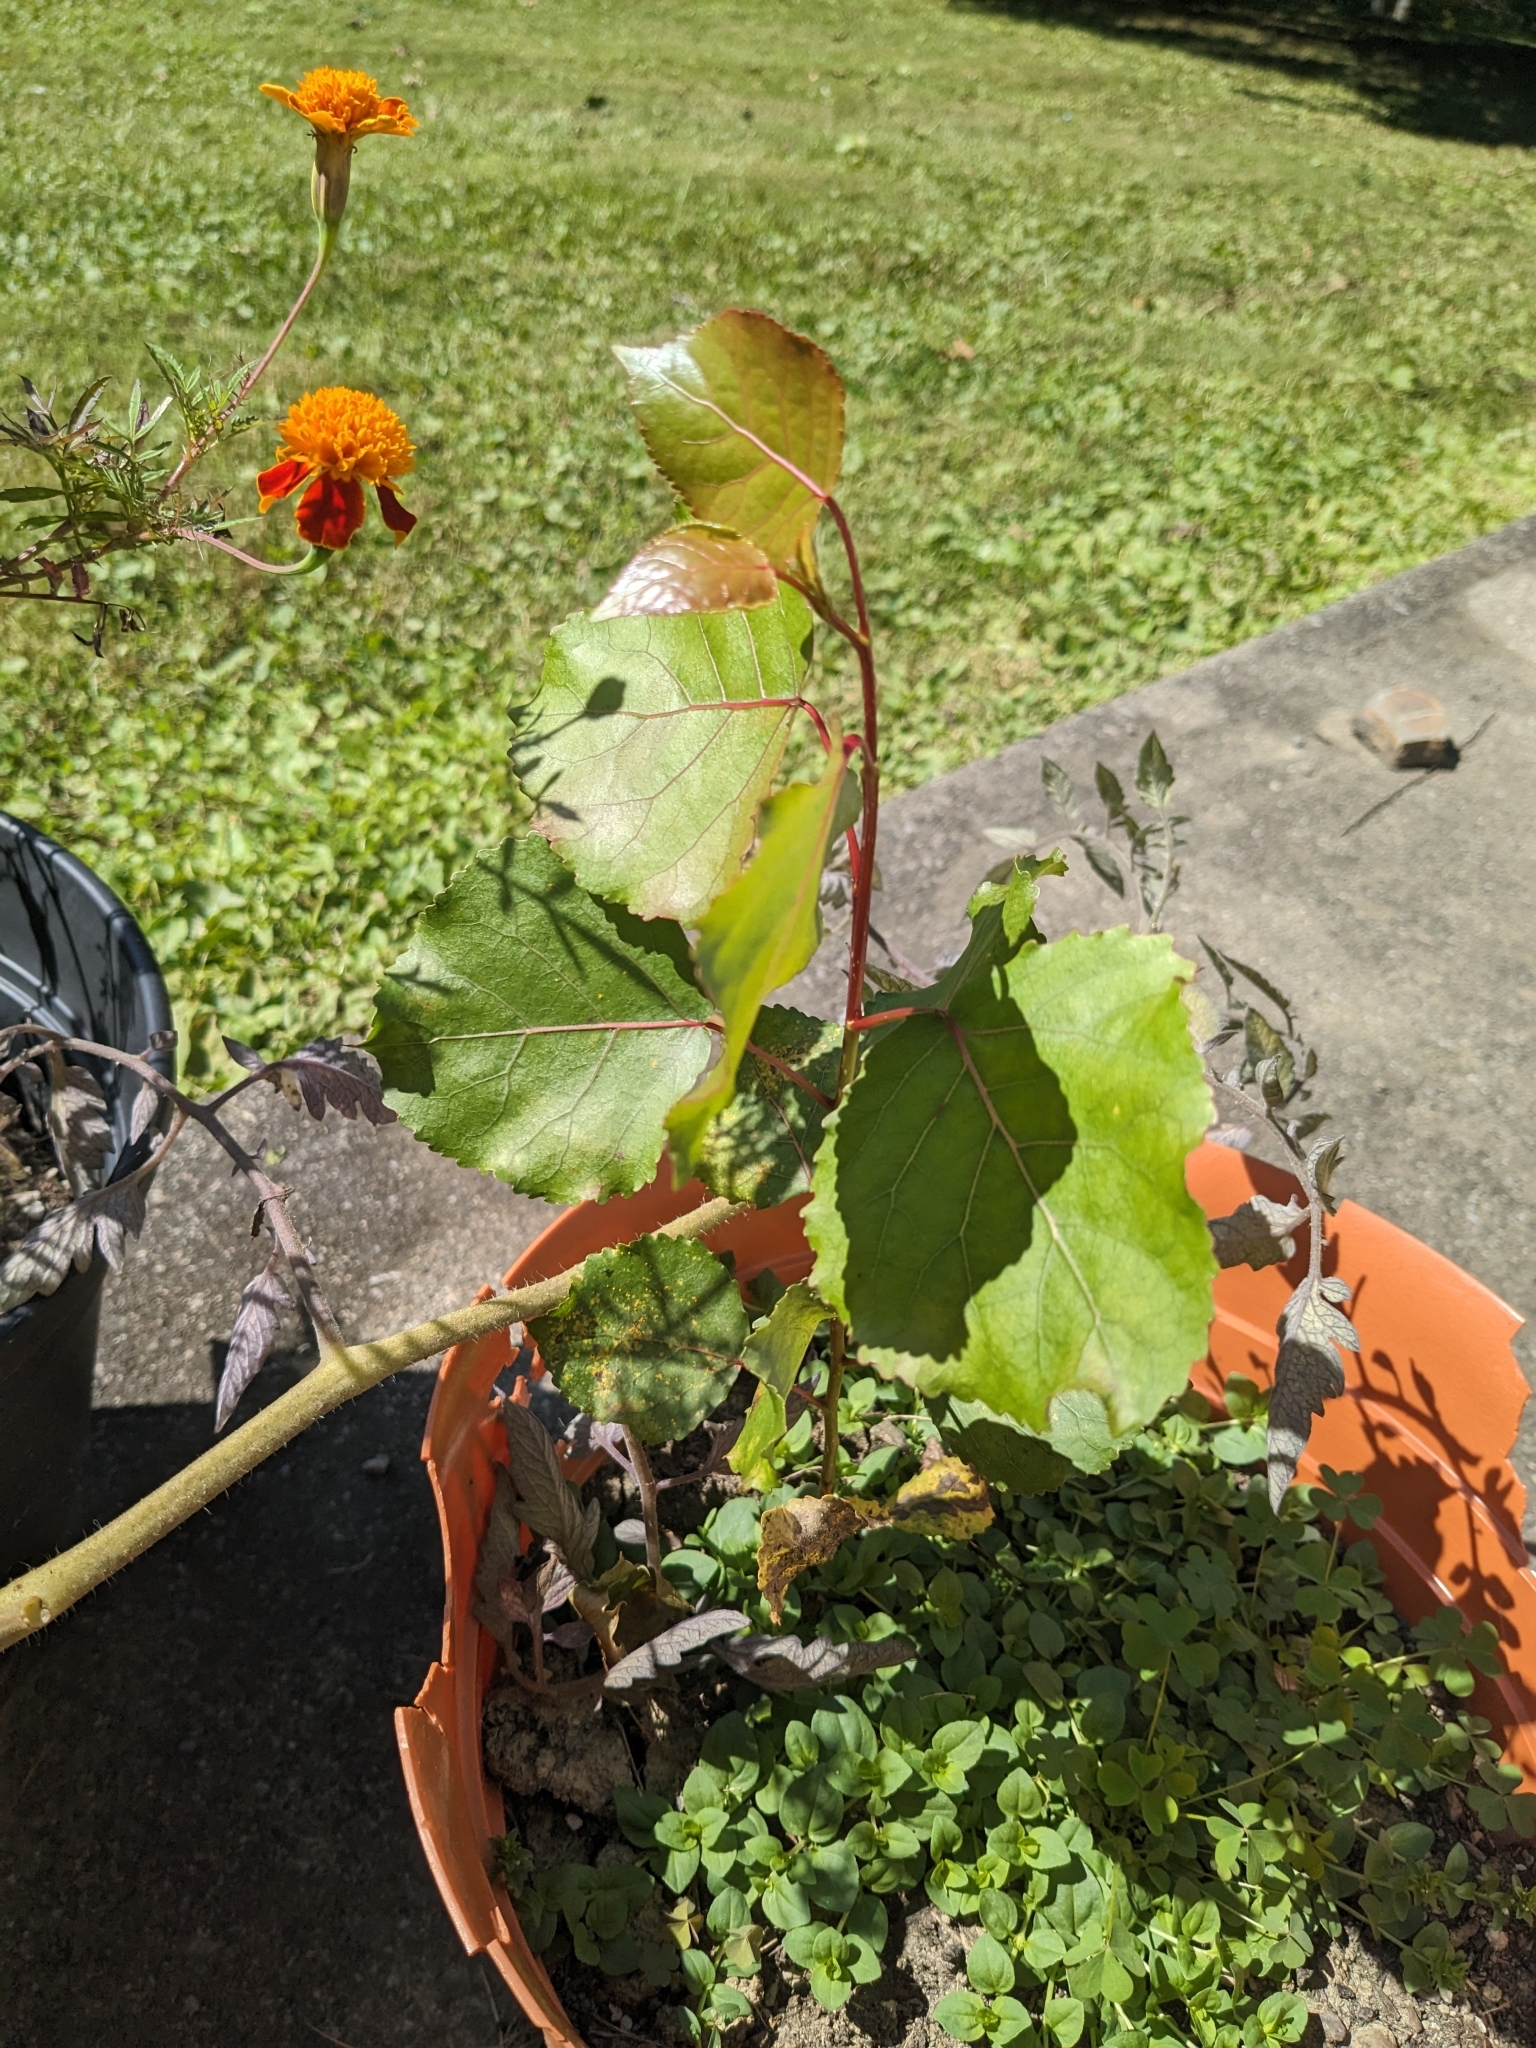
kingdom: Plantae
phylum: Tracheophyta
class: Magnoliopsida
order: Malpighiales
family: Salicaceae
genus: Populus
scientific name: Populus deltoides
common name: Eastern cottonwood
